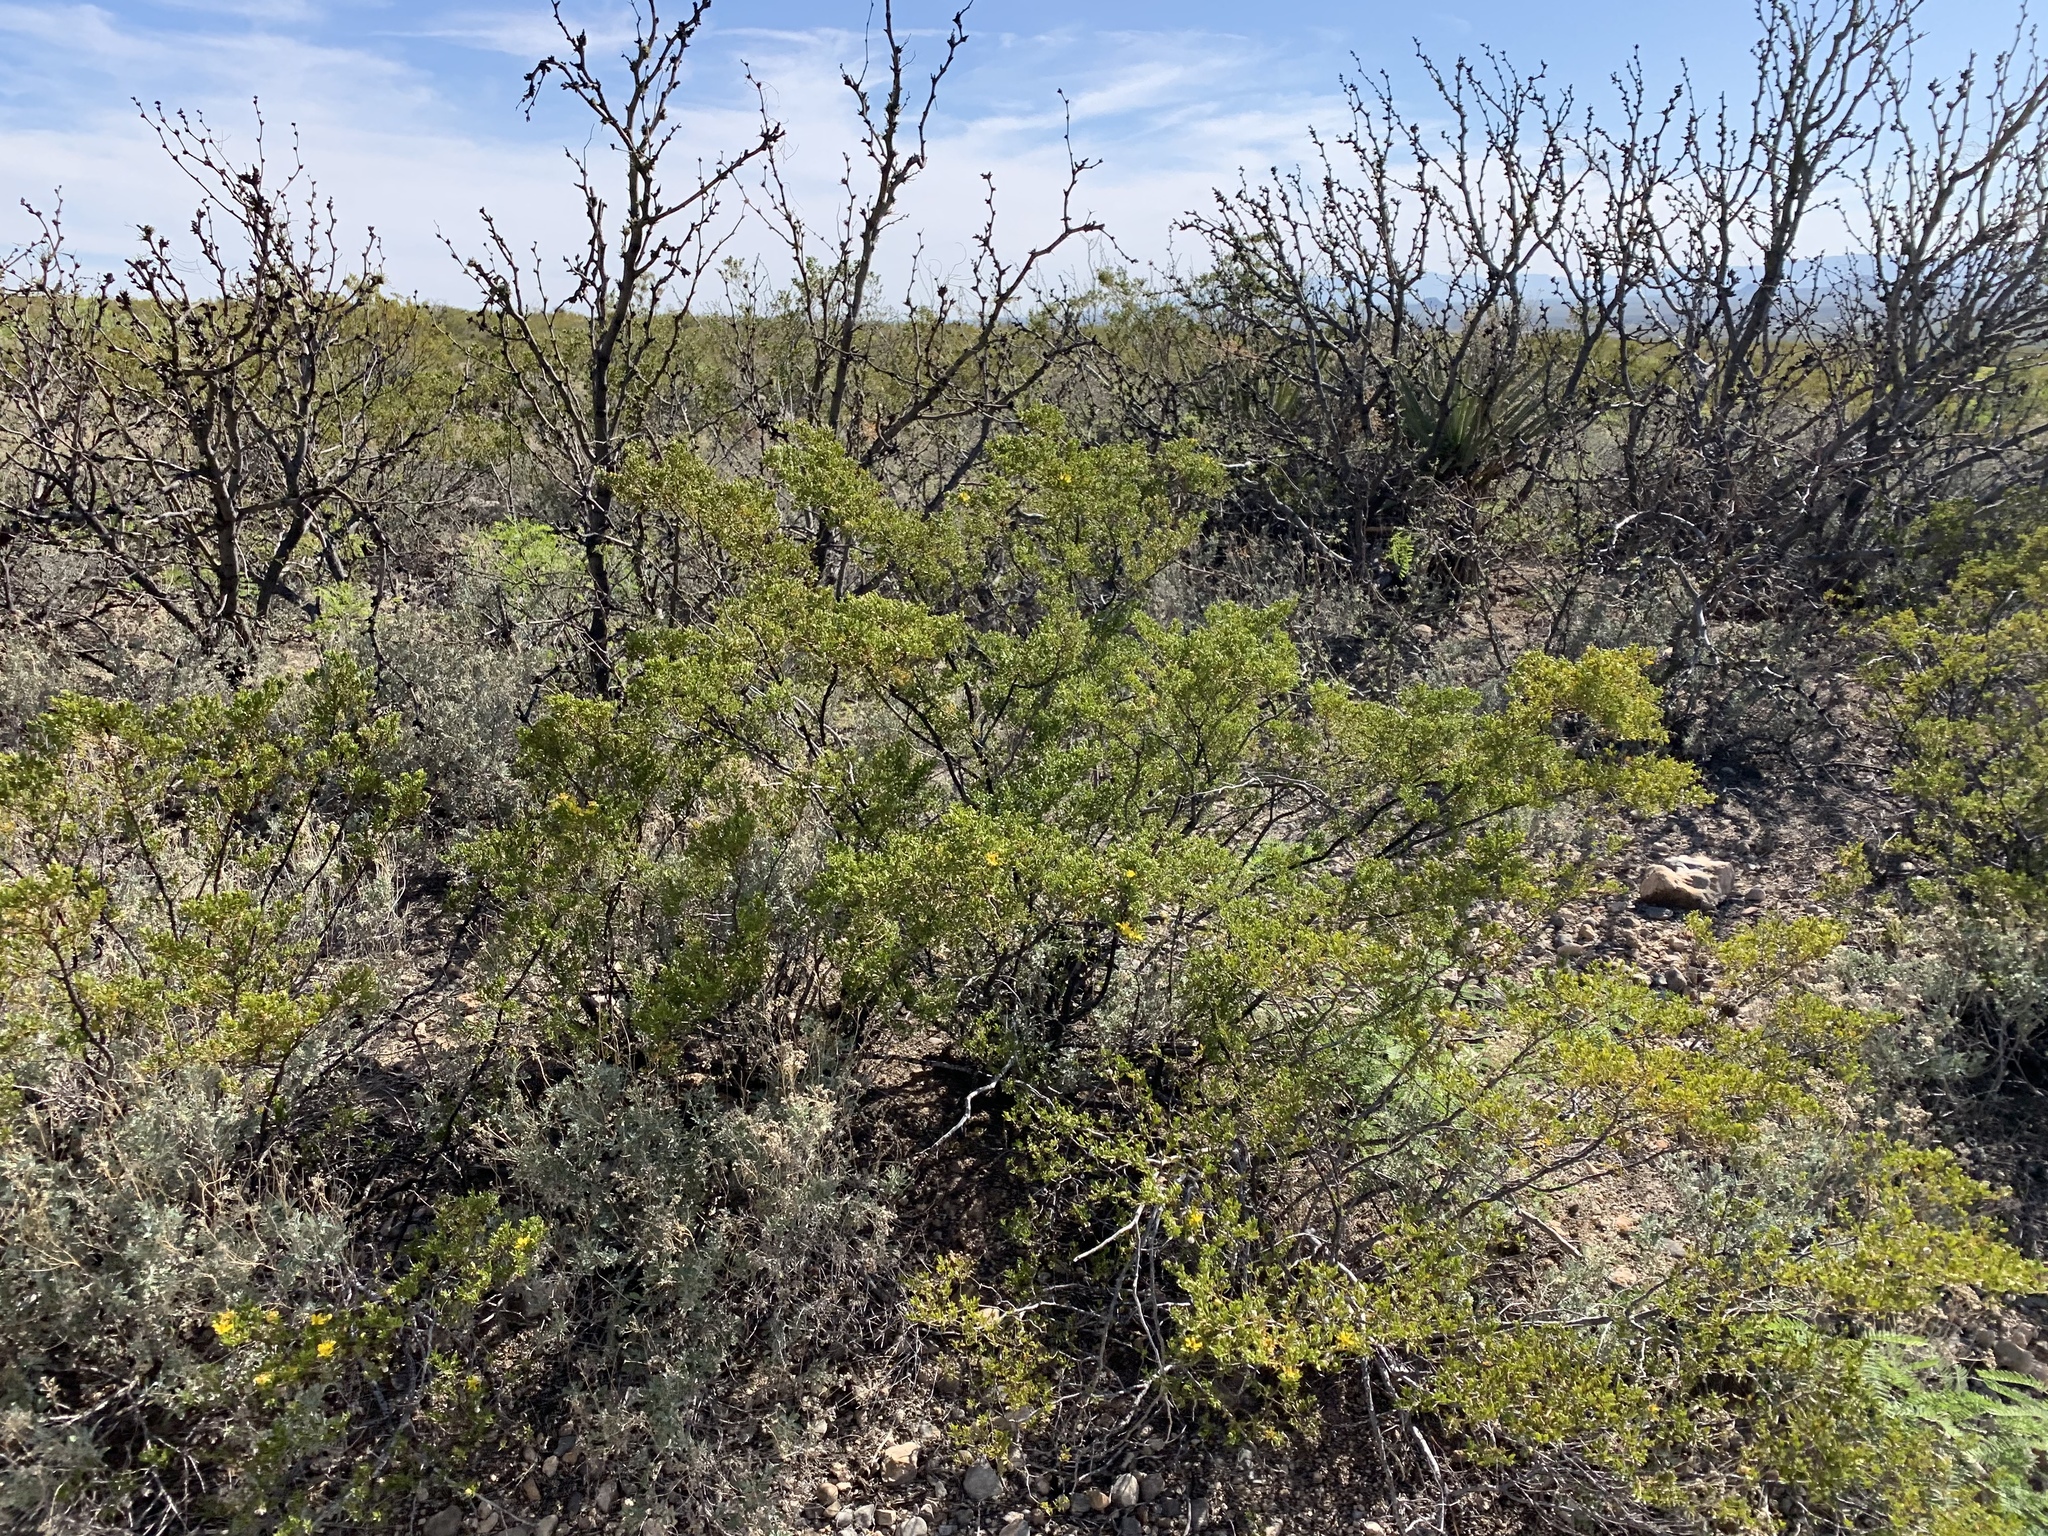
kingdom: Plantae
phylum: Tracheophyta
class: Magnoliopsida
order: Zygophyllales
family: Zygophyllaceae
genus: Larrea
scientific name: Larrea tridentata
